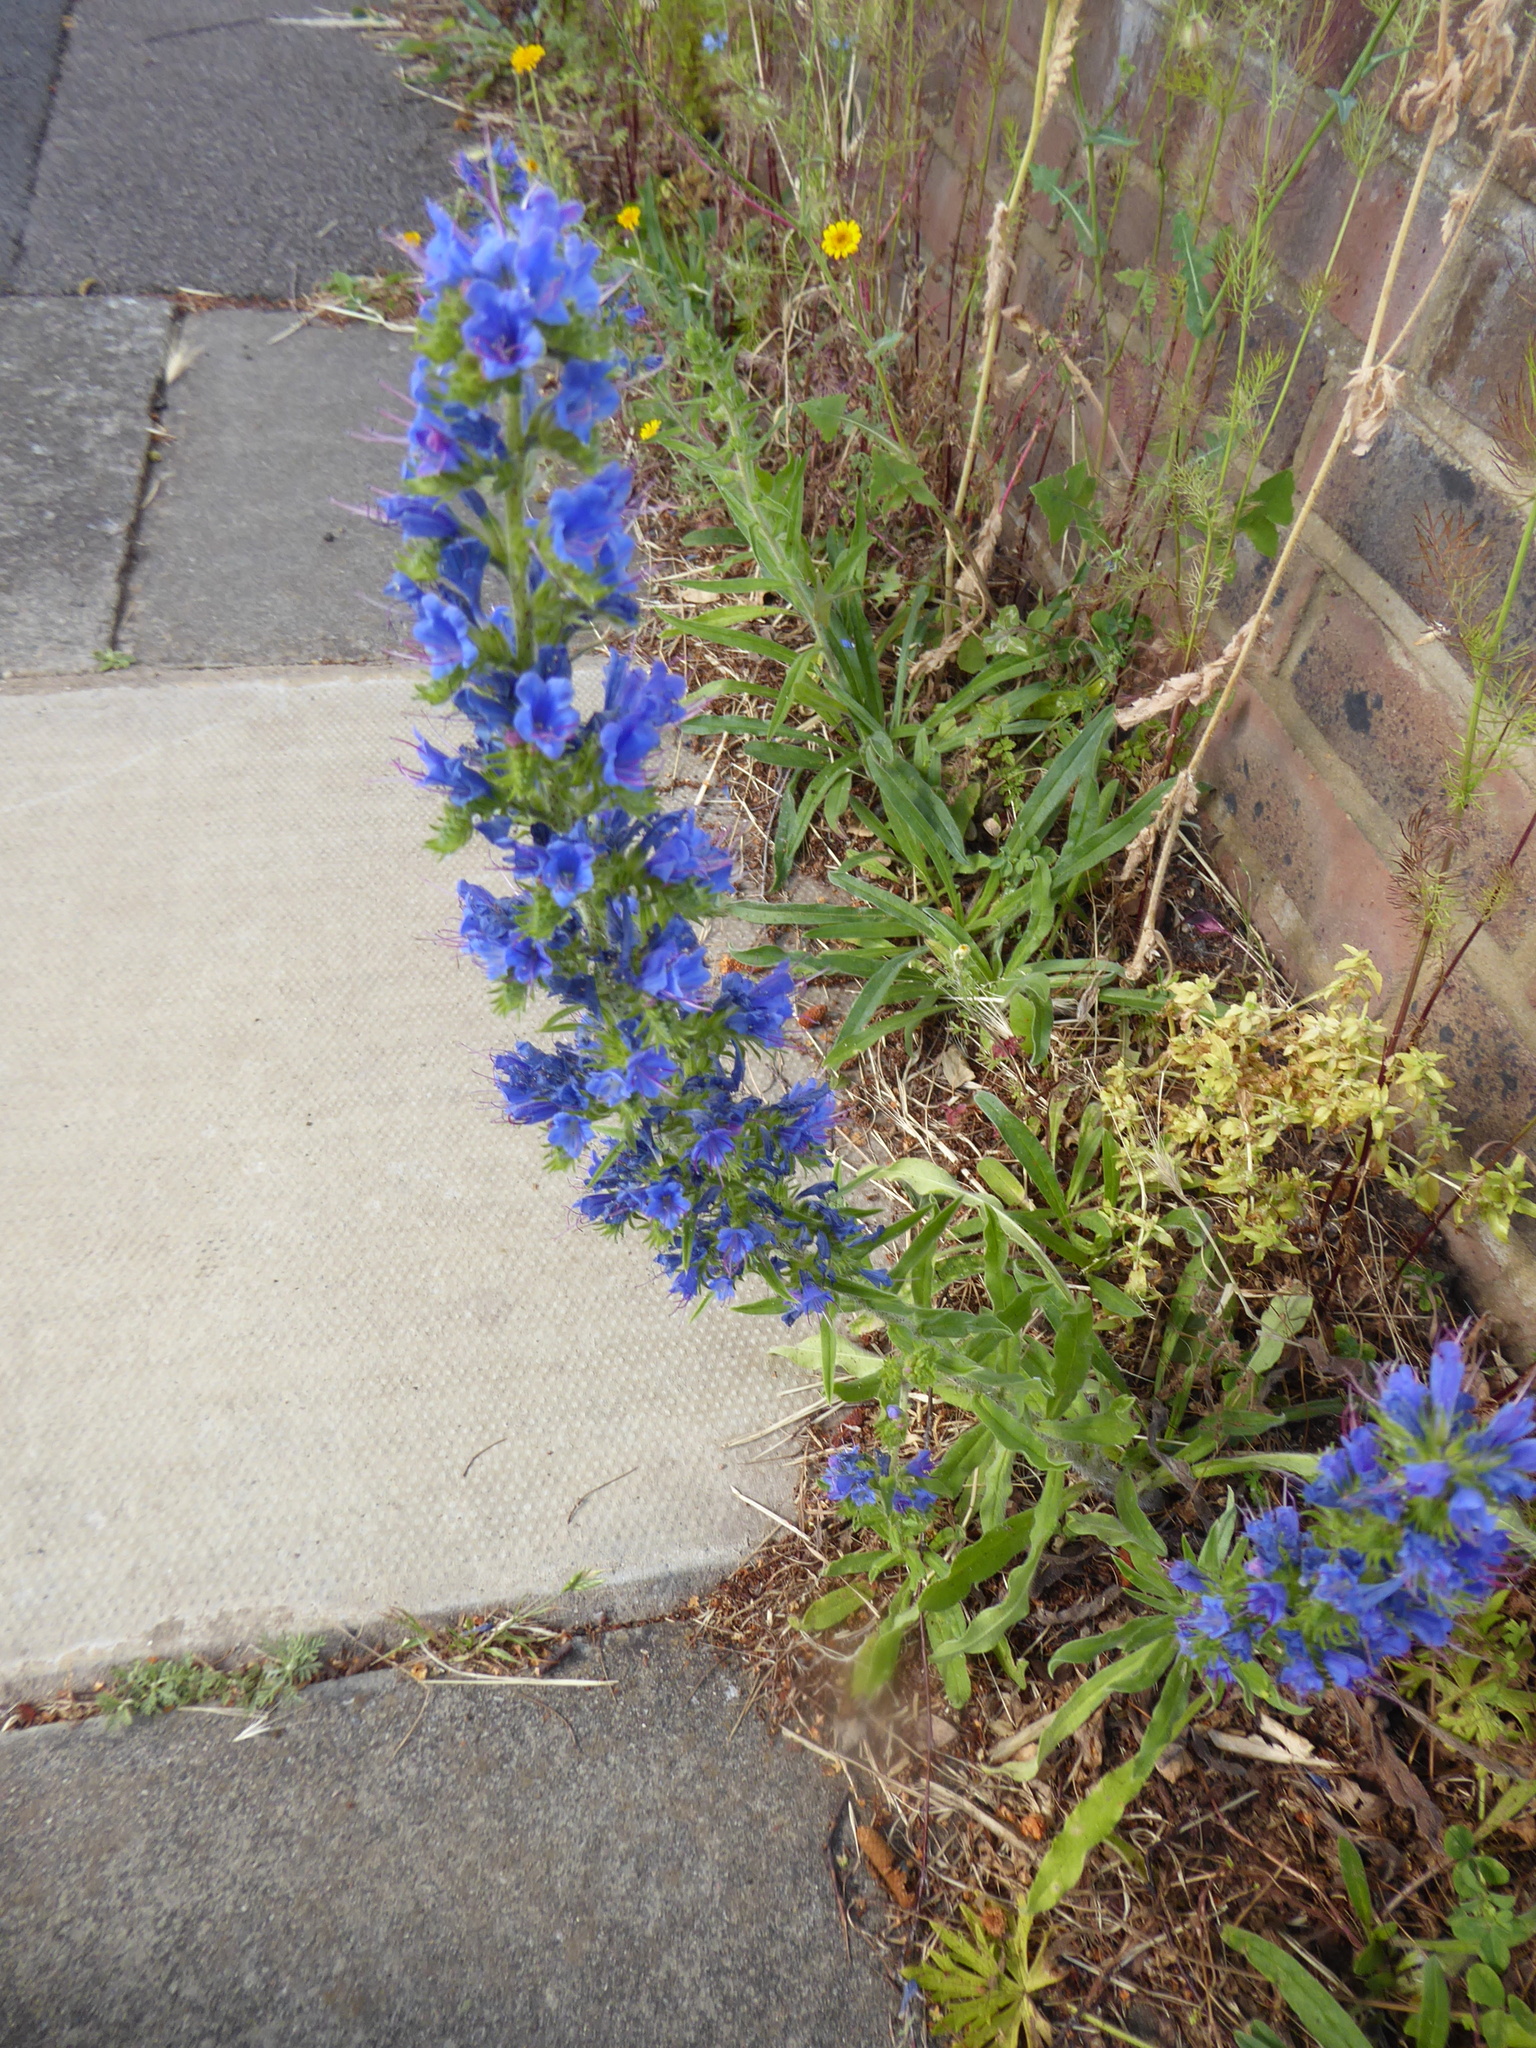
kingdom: Plantae
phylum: Tracheophyta
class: Magnoliopsida
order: Boraginales
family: Boraginaceae
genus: Echium
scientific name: Echium vulgare
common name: Common viper's bugloss
